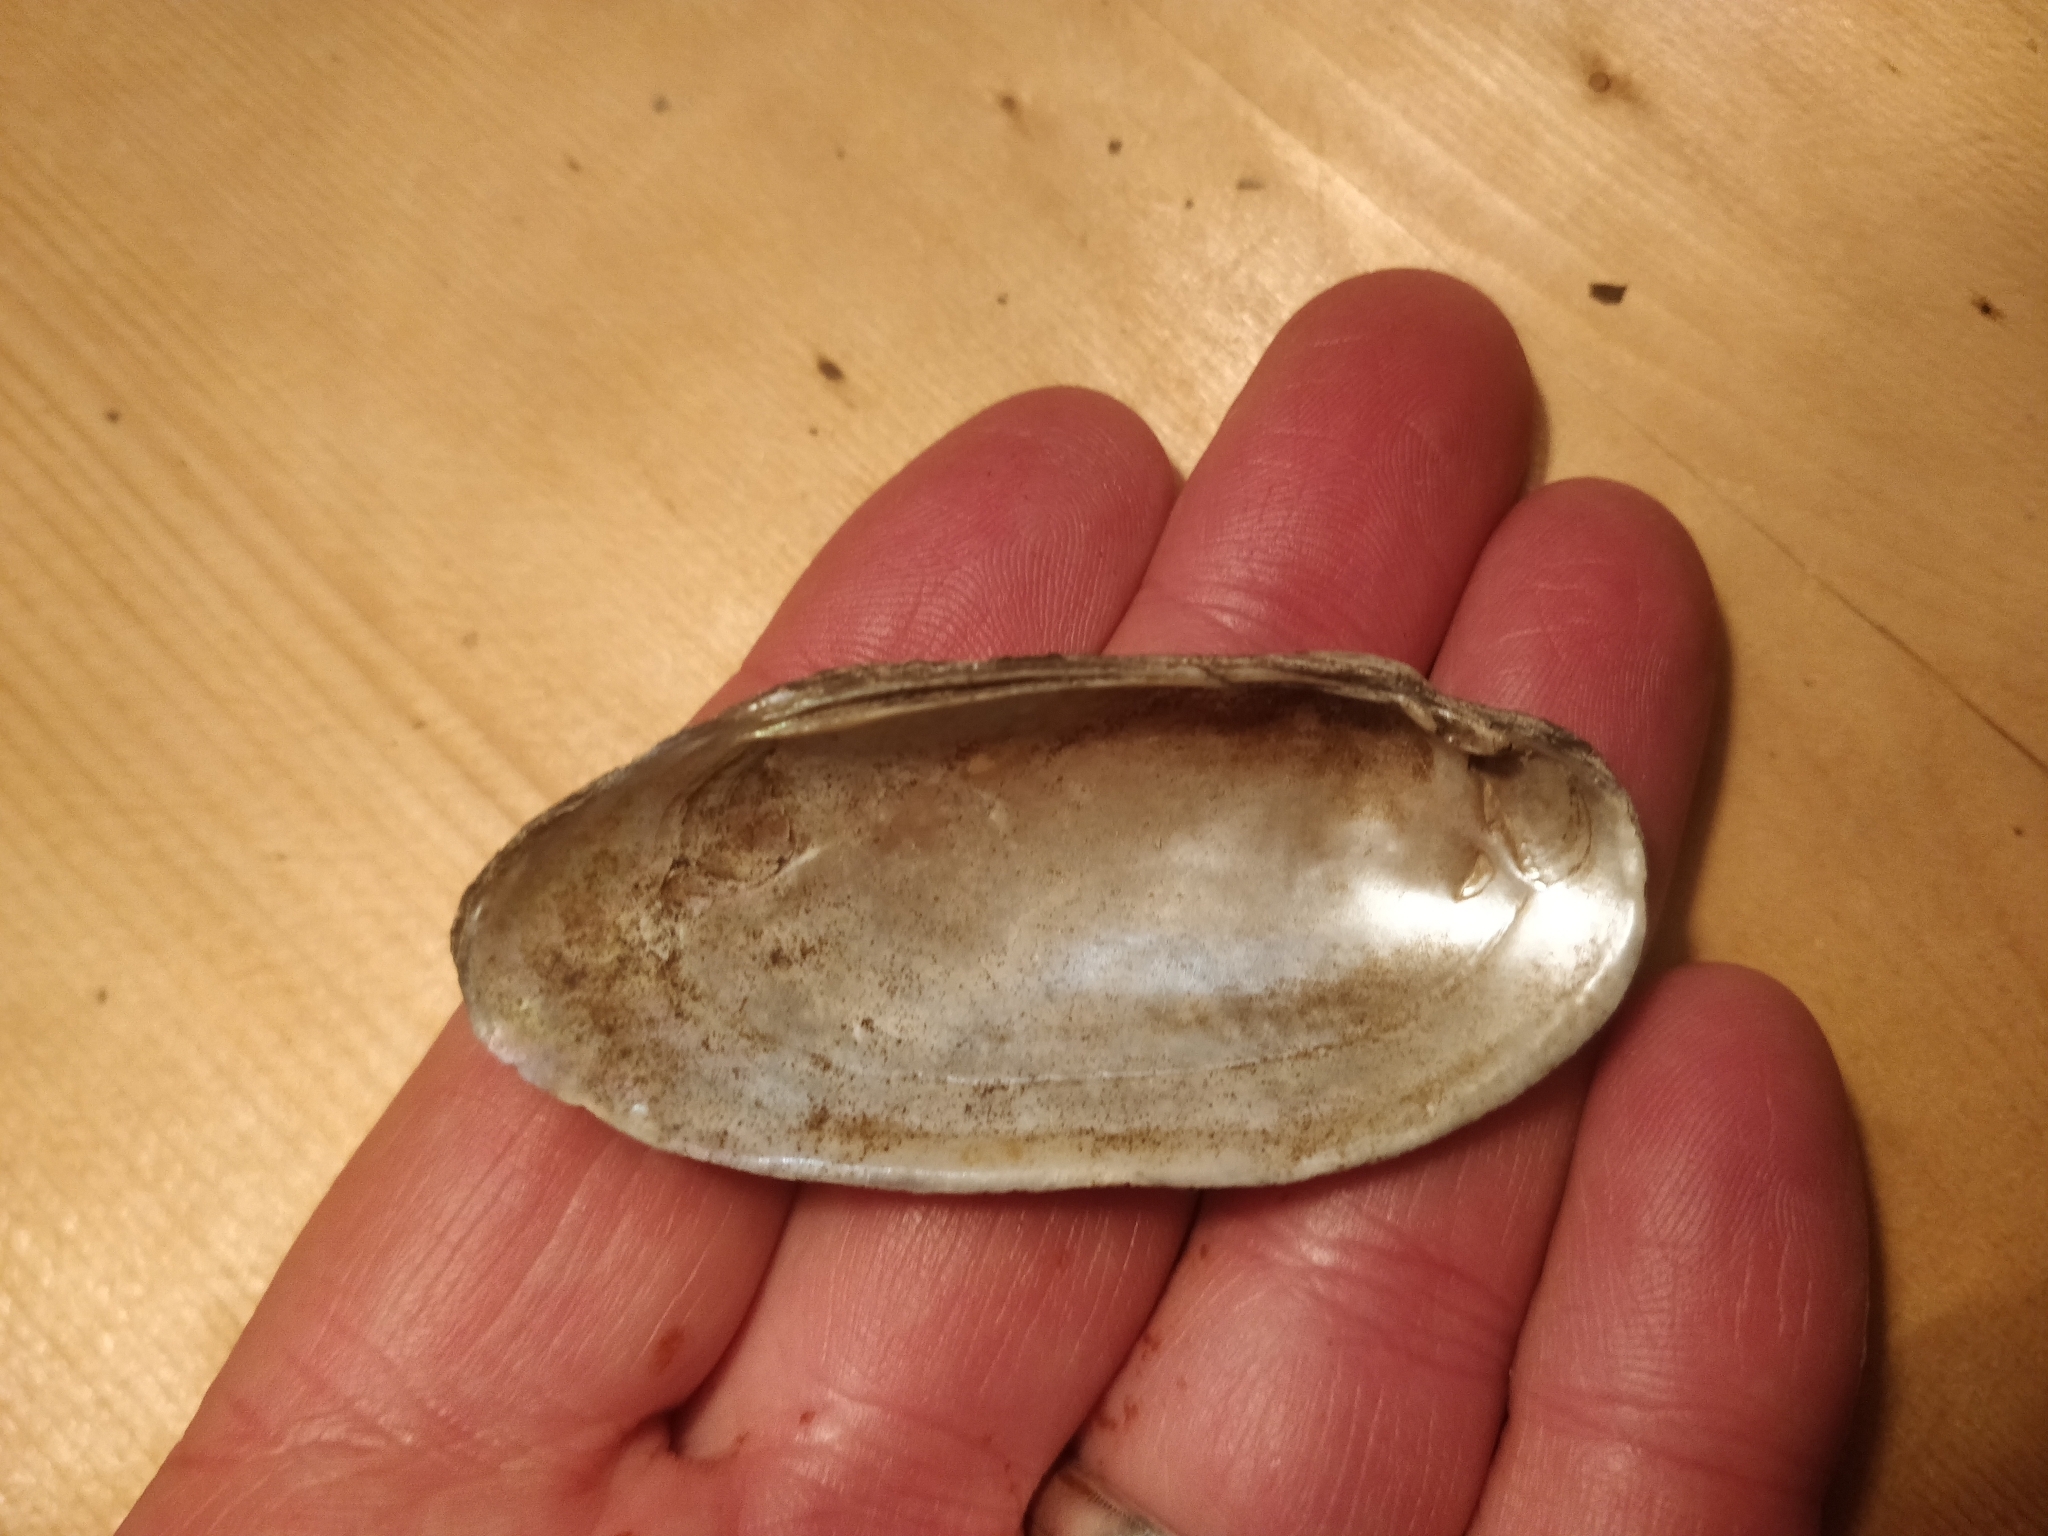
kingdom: Animalia
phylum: Mollusca
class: Bivalvia
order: Unionida
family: Unionidae
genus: Lampsilis
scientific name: Lampsilis teres
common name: Yellow sandshell
